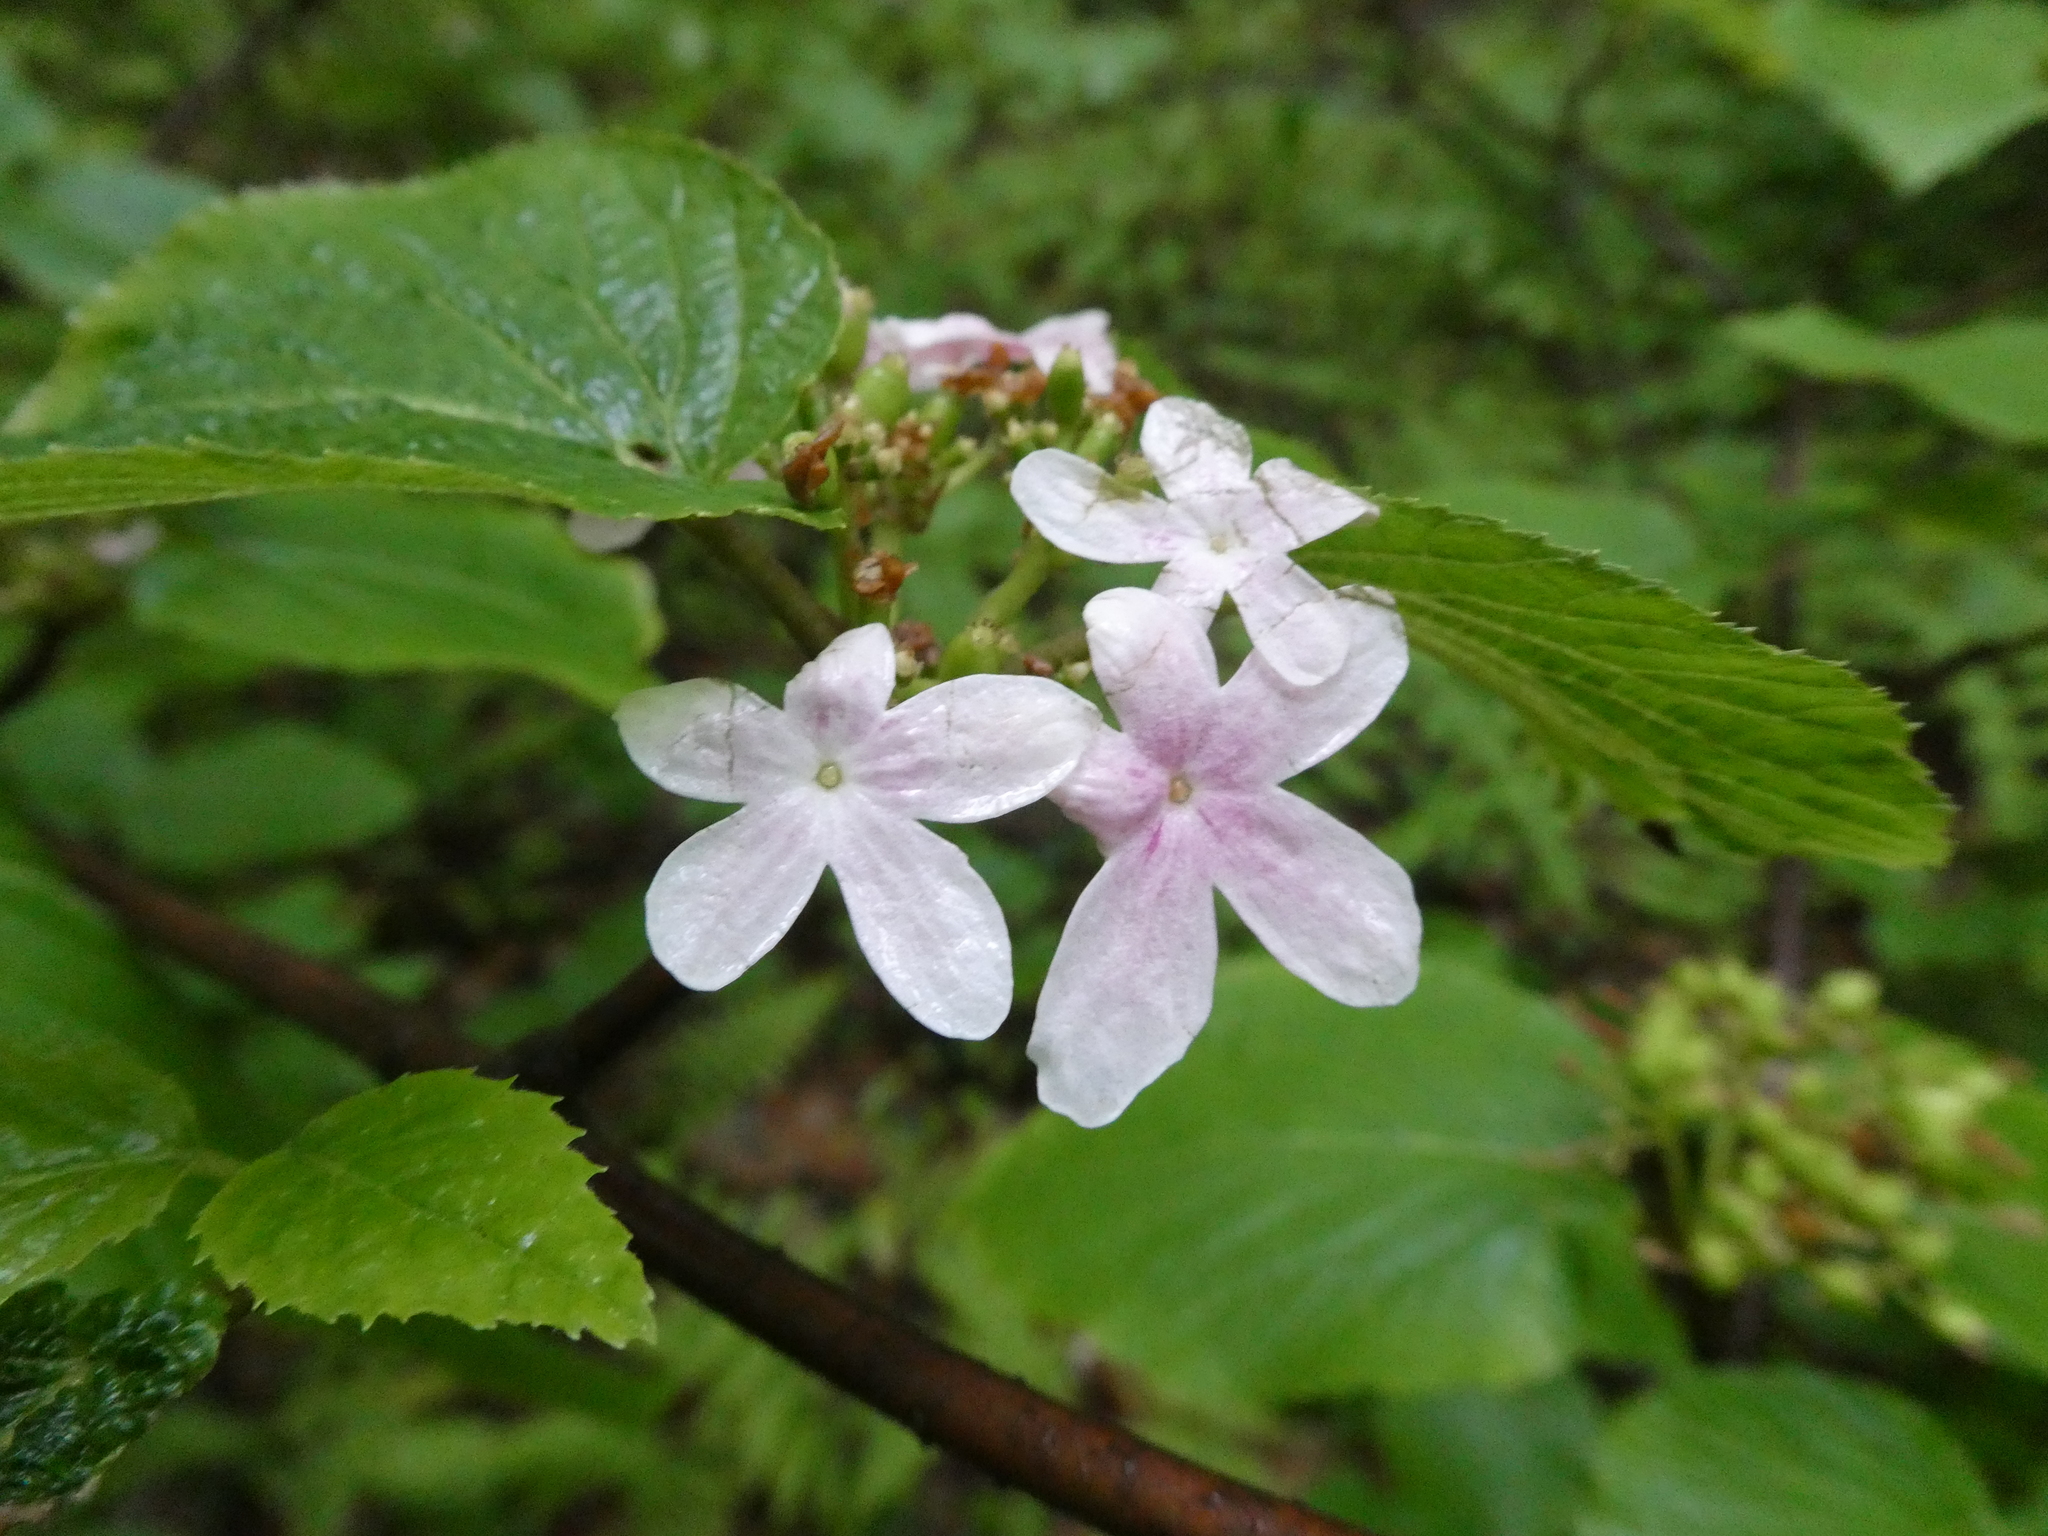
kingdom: Plantae
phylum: Tracheophyta
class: Magnoliopsida
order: Dipsacales
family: Viburnaceae
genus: Viburnum
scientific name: Viburnum lantanoides
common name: Hobblebush
